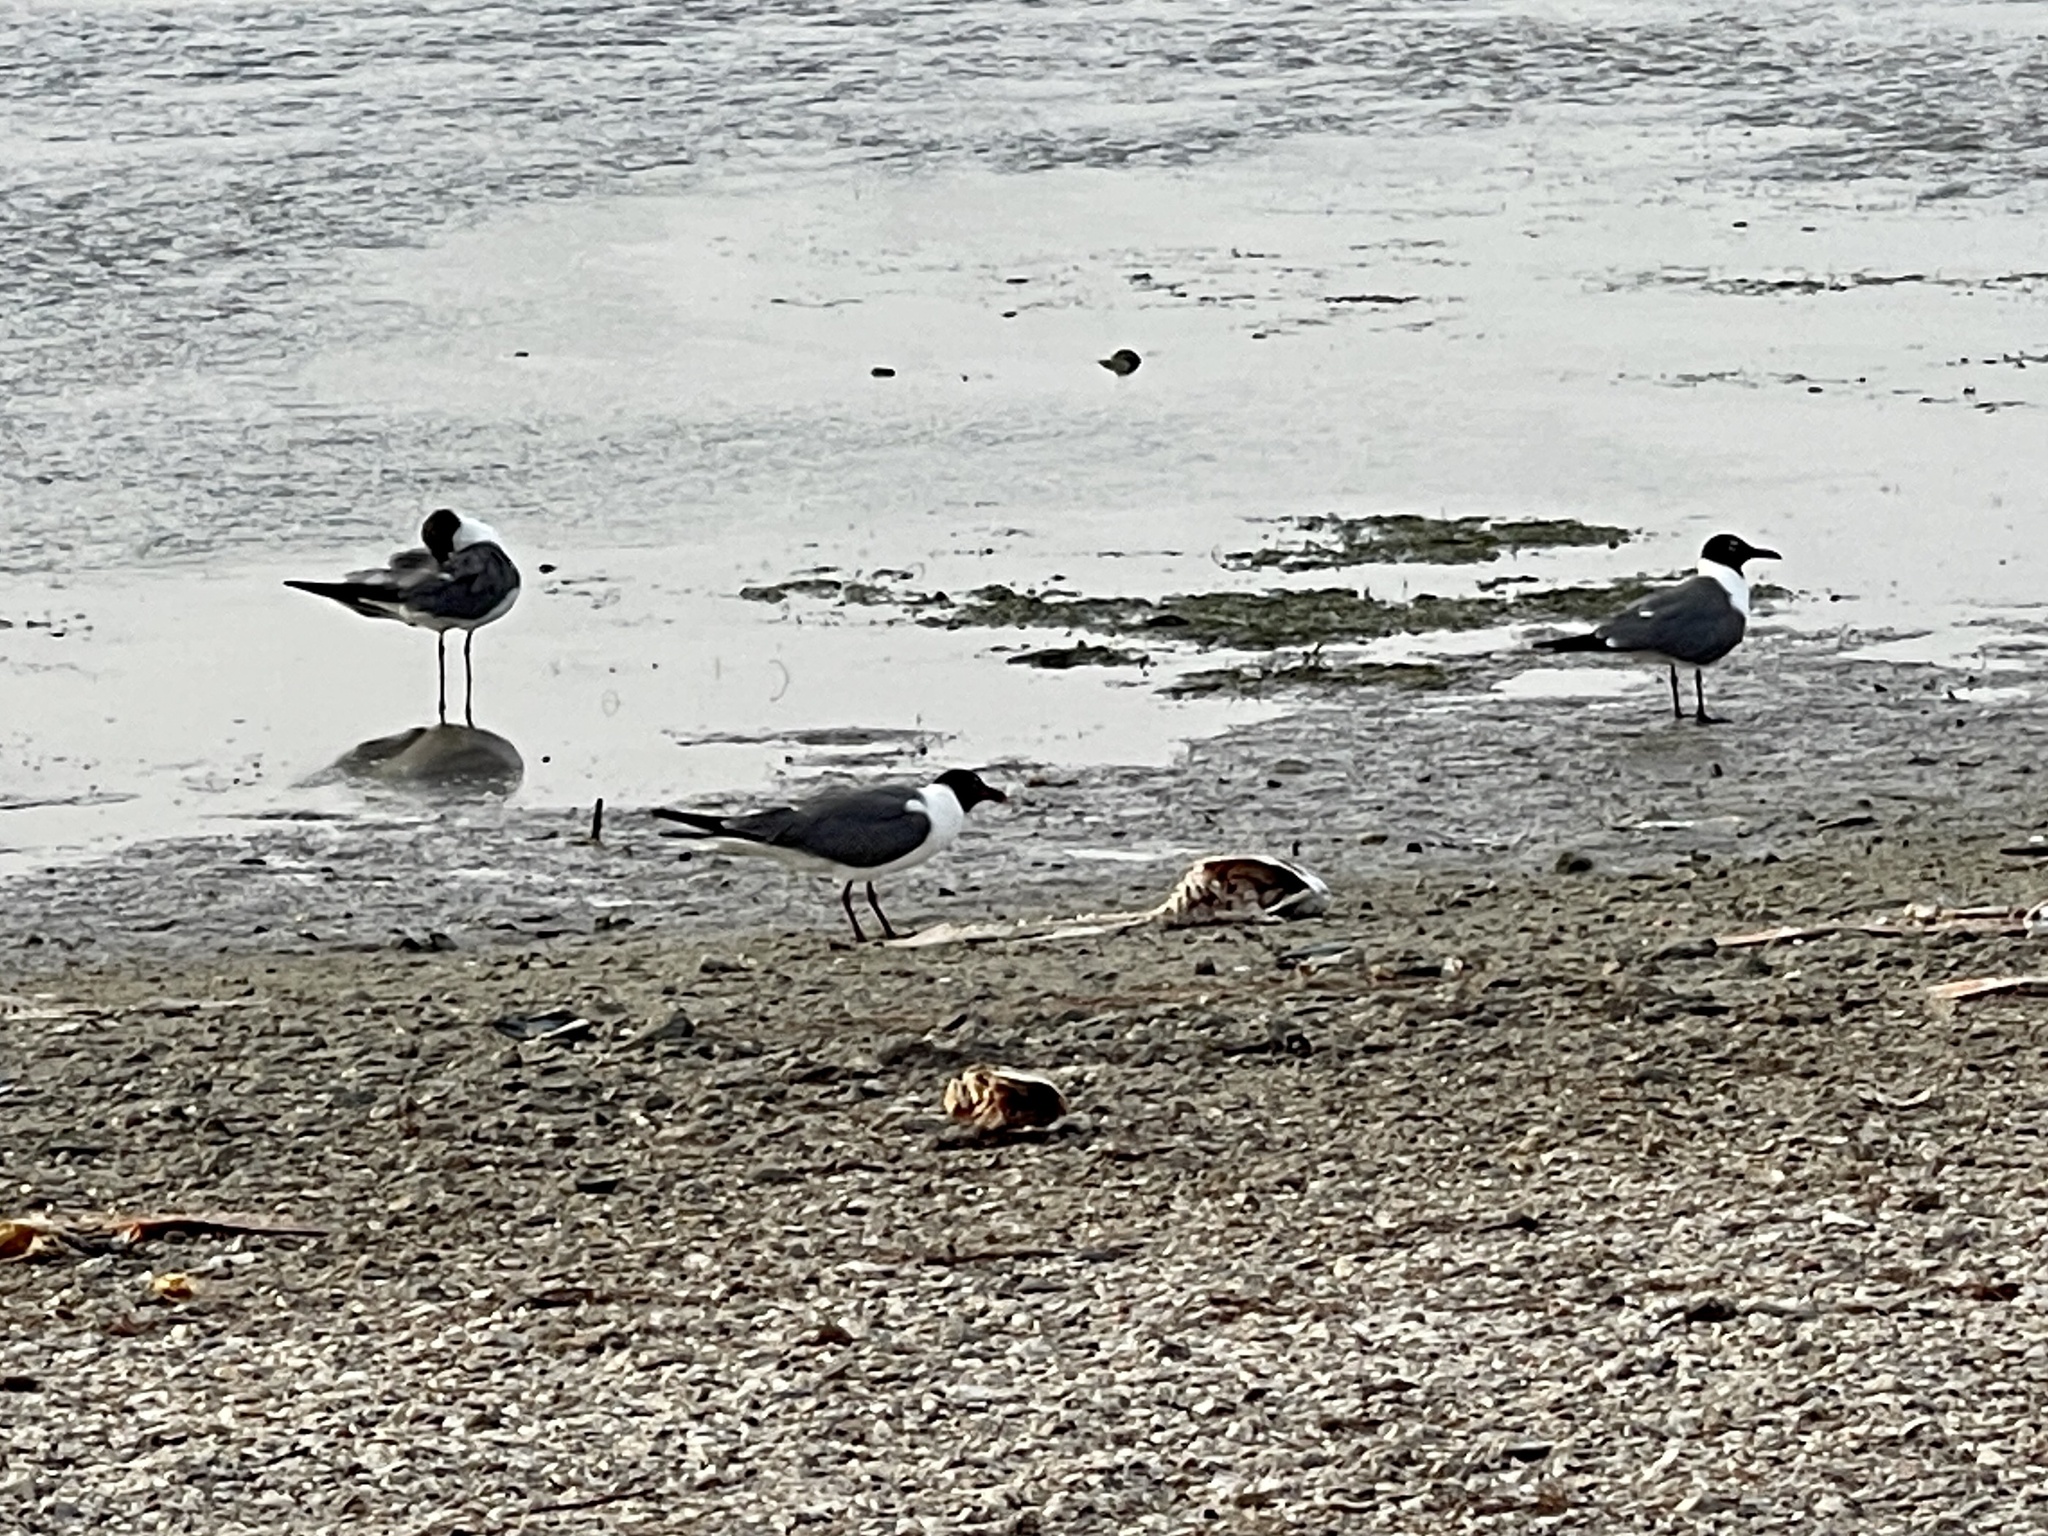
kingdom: Animalia
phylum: Chordata
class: Aves
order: Charadriiformes
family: Laridae
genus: Leucophaeus
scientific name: Leucophaeus atricilla
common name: Laughing gull
